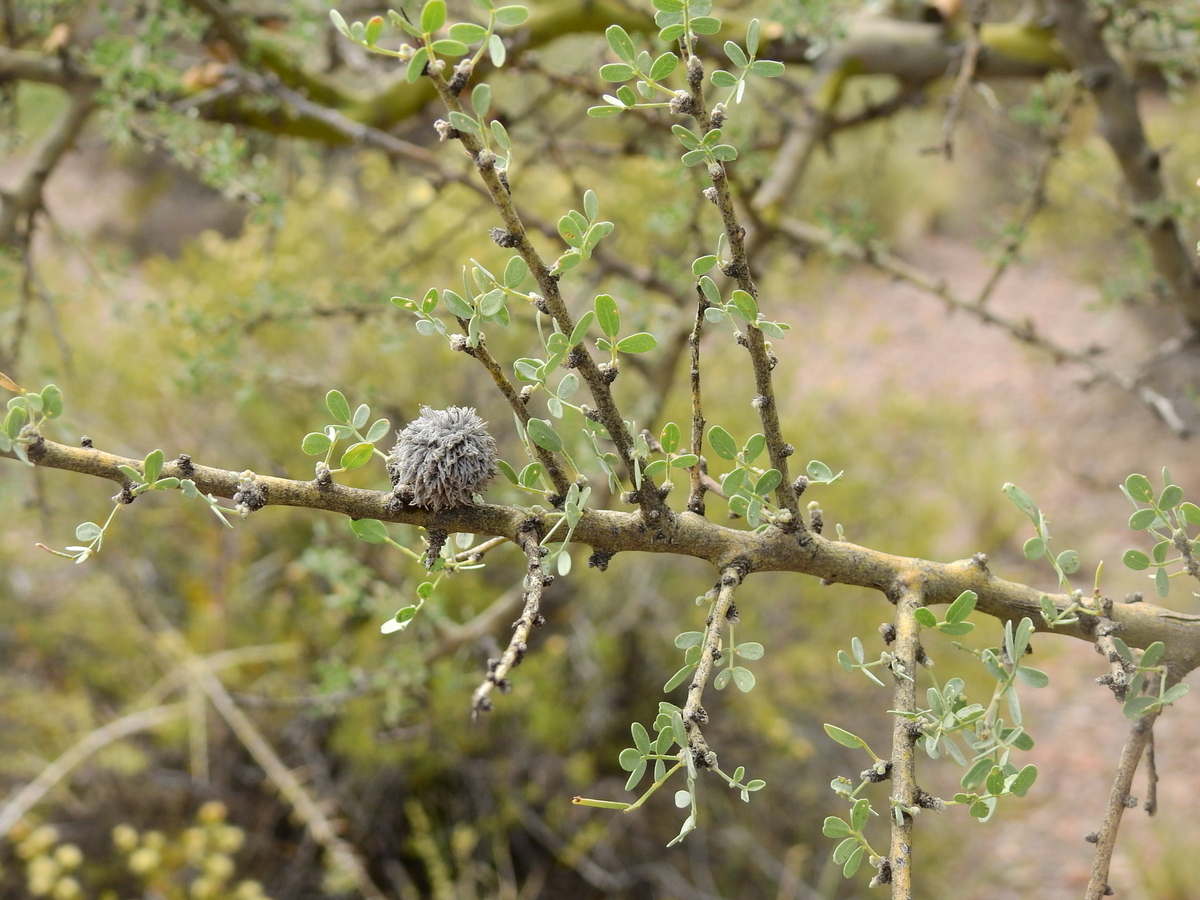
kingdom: Plantae
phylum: Tracheophyta
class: Magnoliopsida
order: Fabales
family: Fabaceae
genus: Geoffroea
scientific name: Geoffroea decorticans
